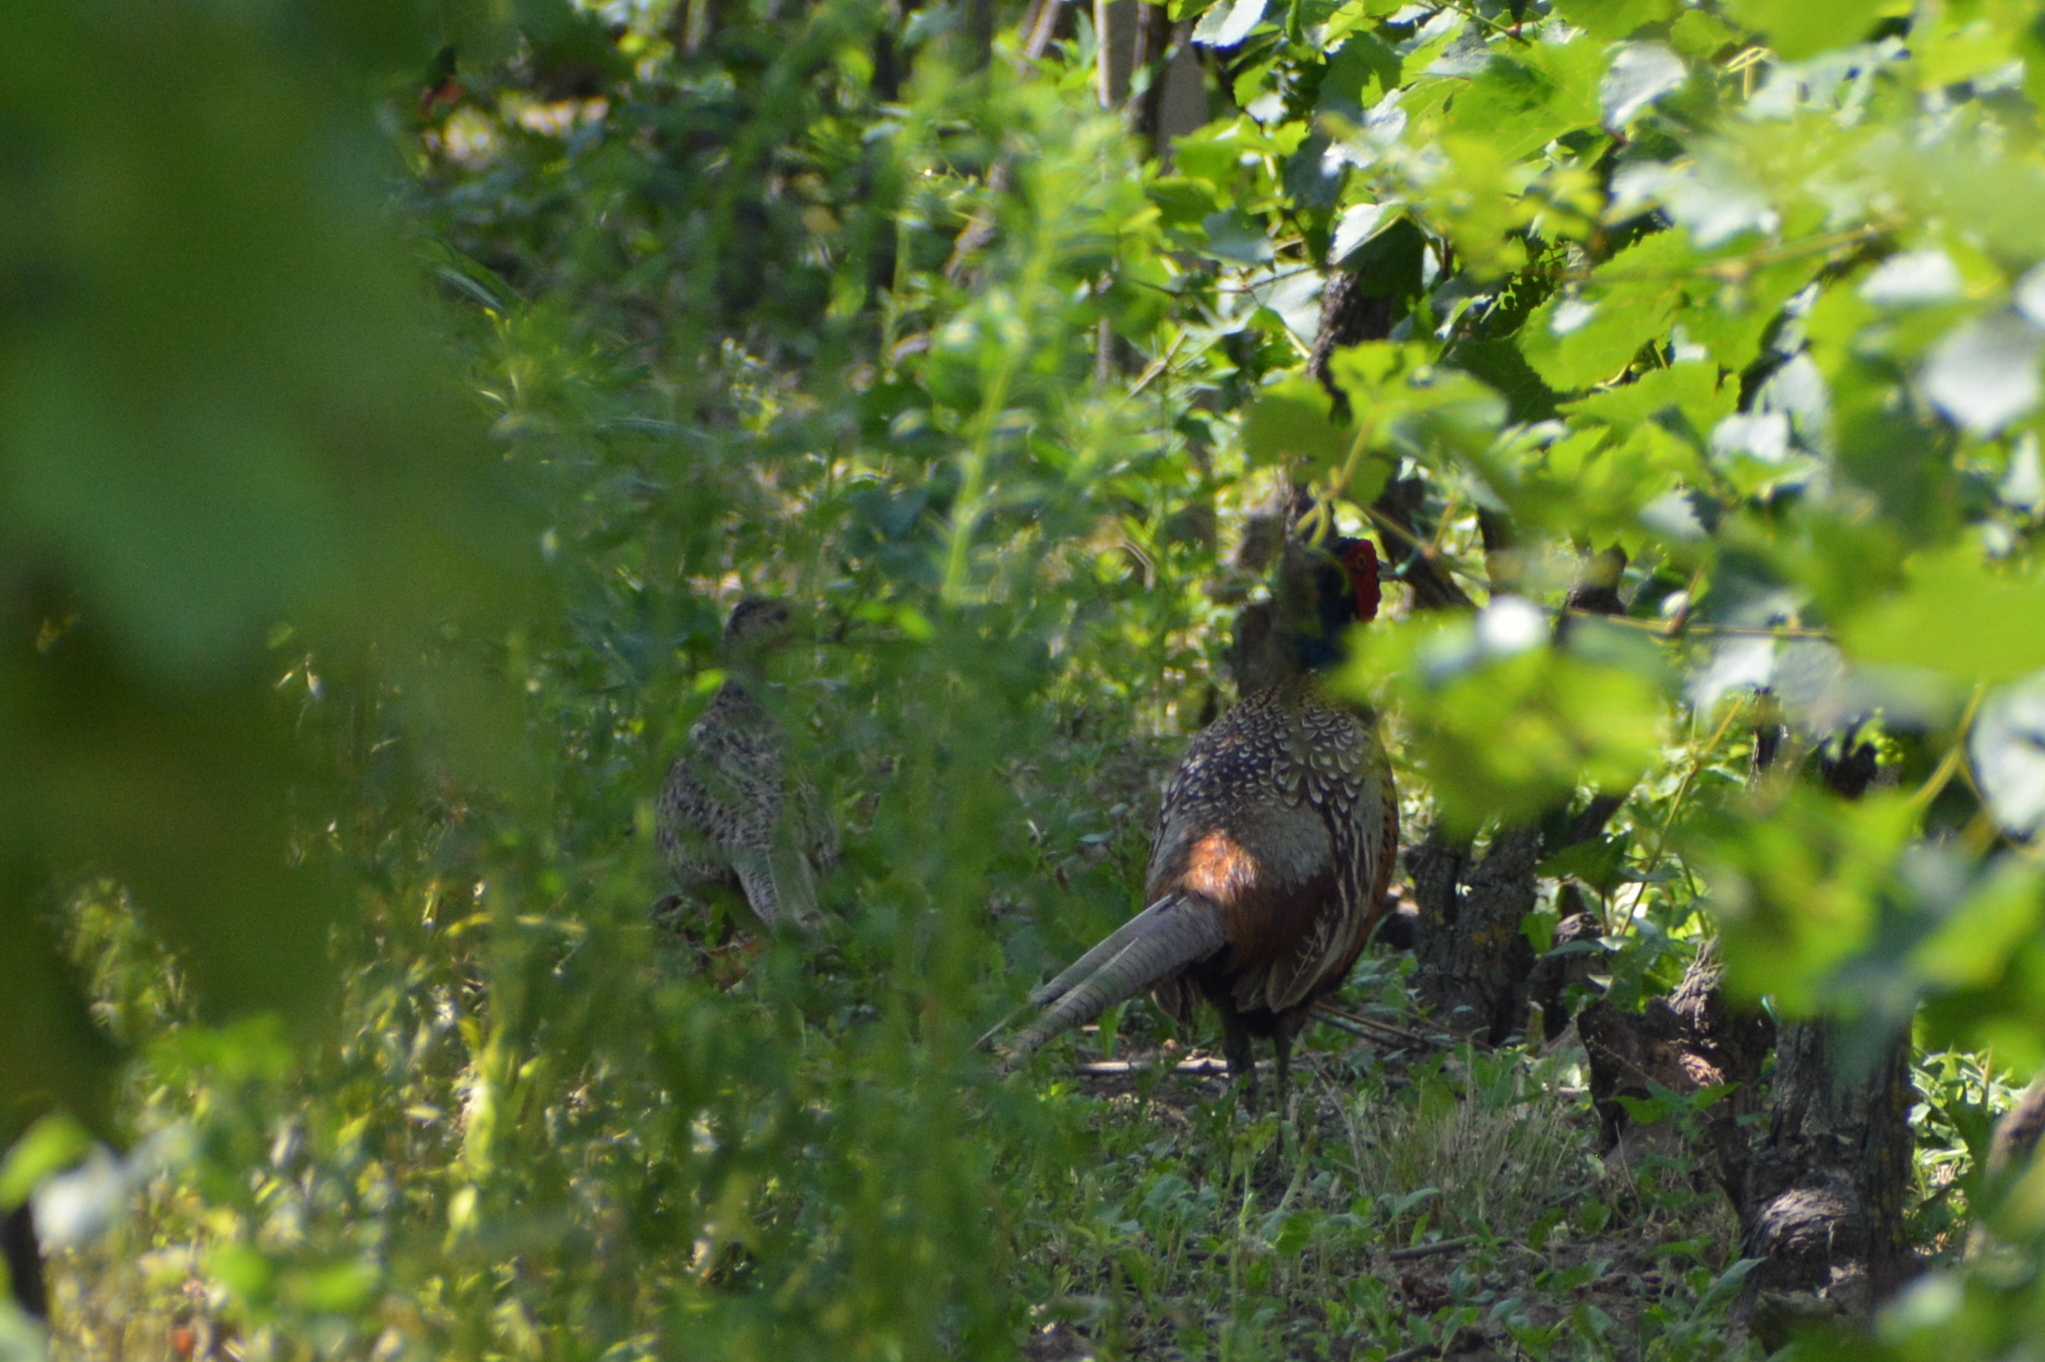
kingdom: Animalia
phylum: Chordata
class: Aves
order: Galliformes
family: Phasianidae
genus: Phasianus
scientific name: Phasianus colchicus
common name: Common pheasant
